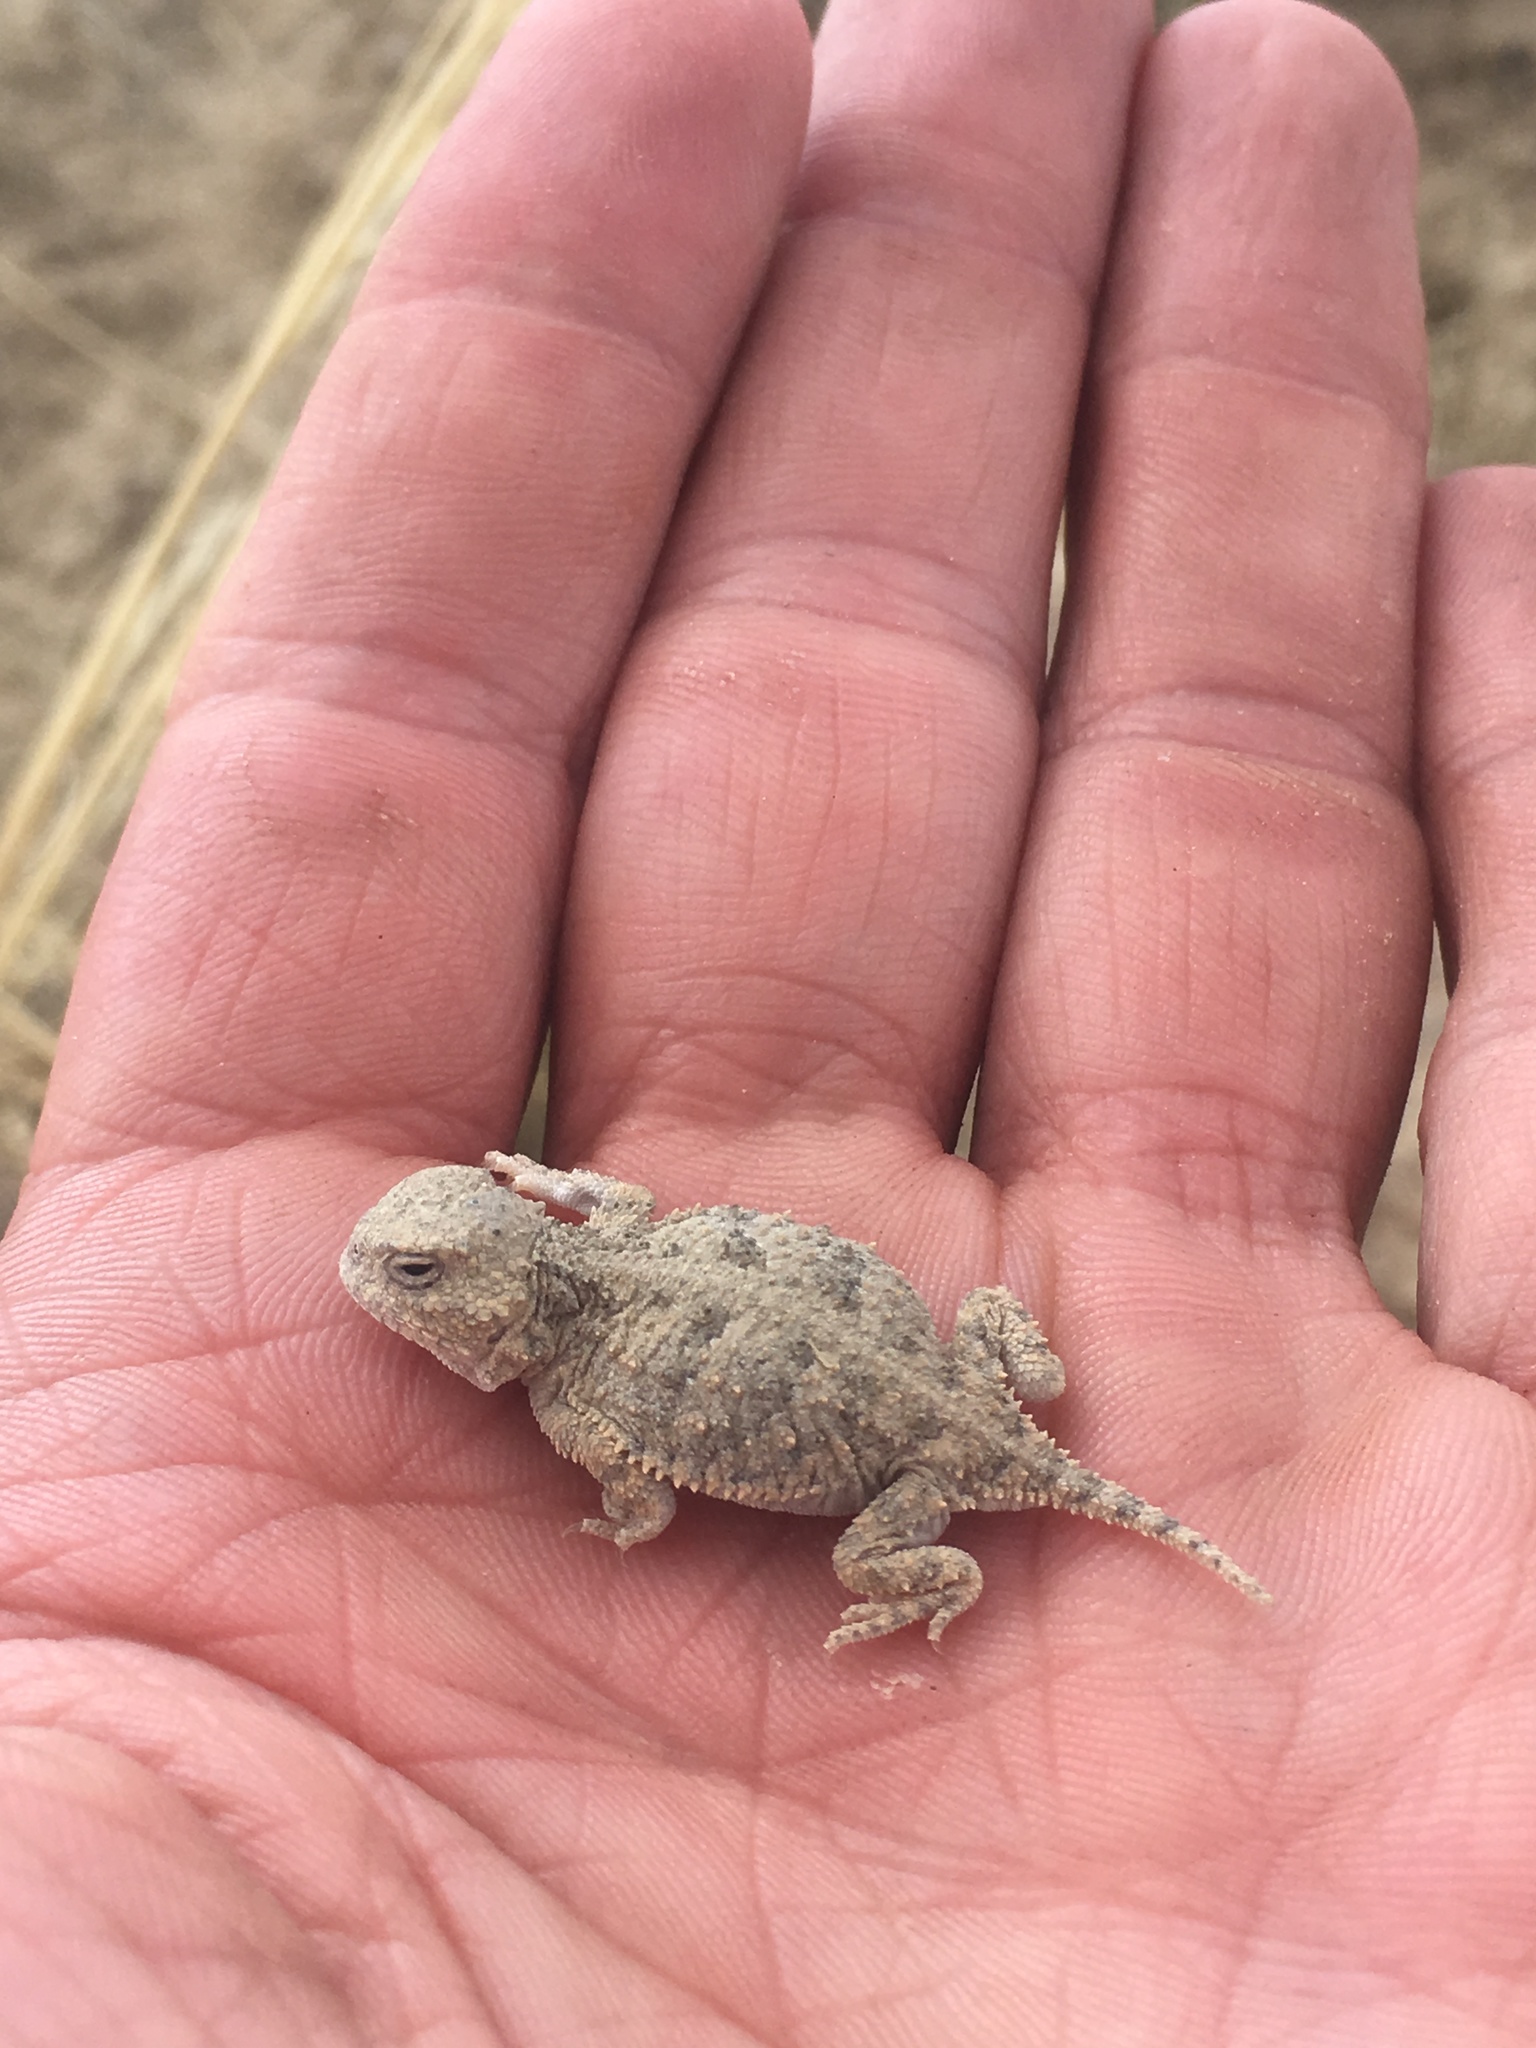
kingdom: Animalia
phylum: Chordata
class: Squamata
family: Phrynosomatidae
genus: Phrynosoma
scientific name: Phrynosoma hernandesi
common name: Greater short-horned lizard
